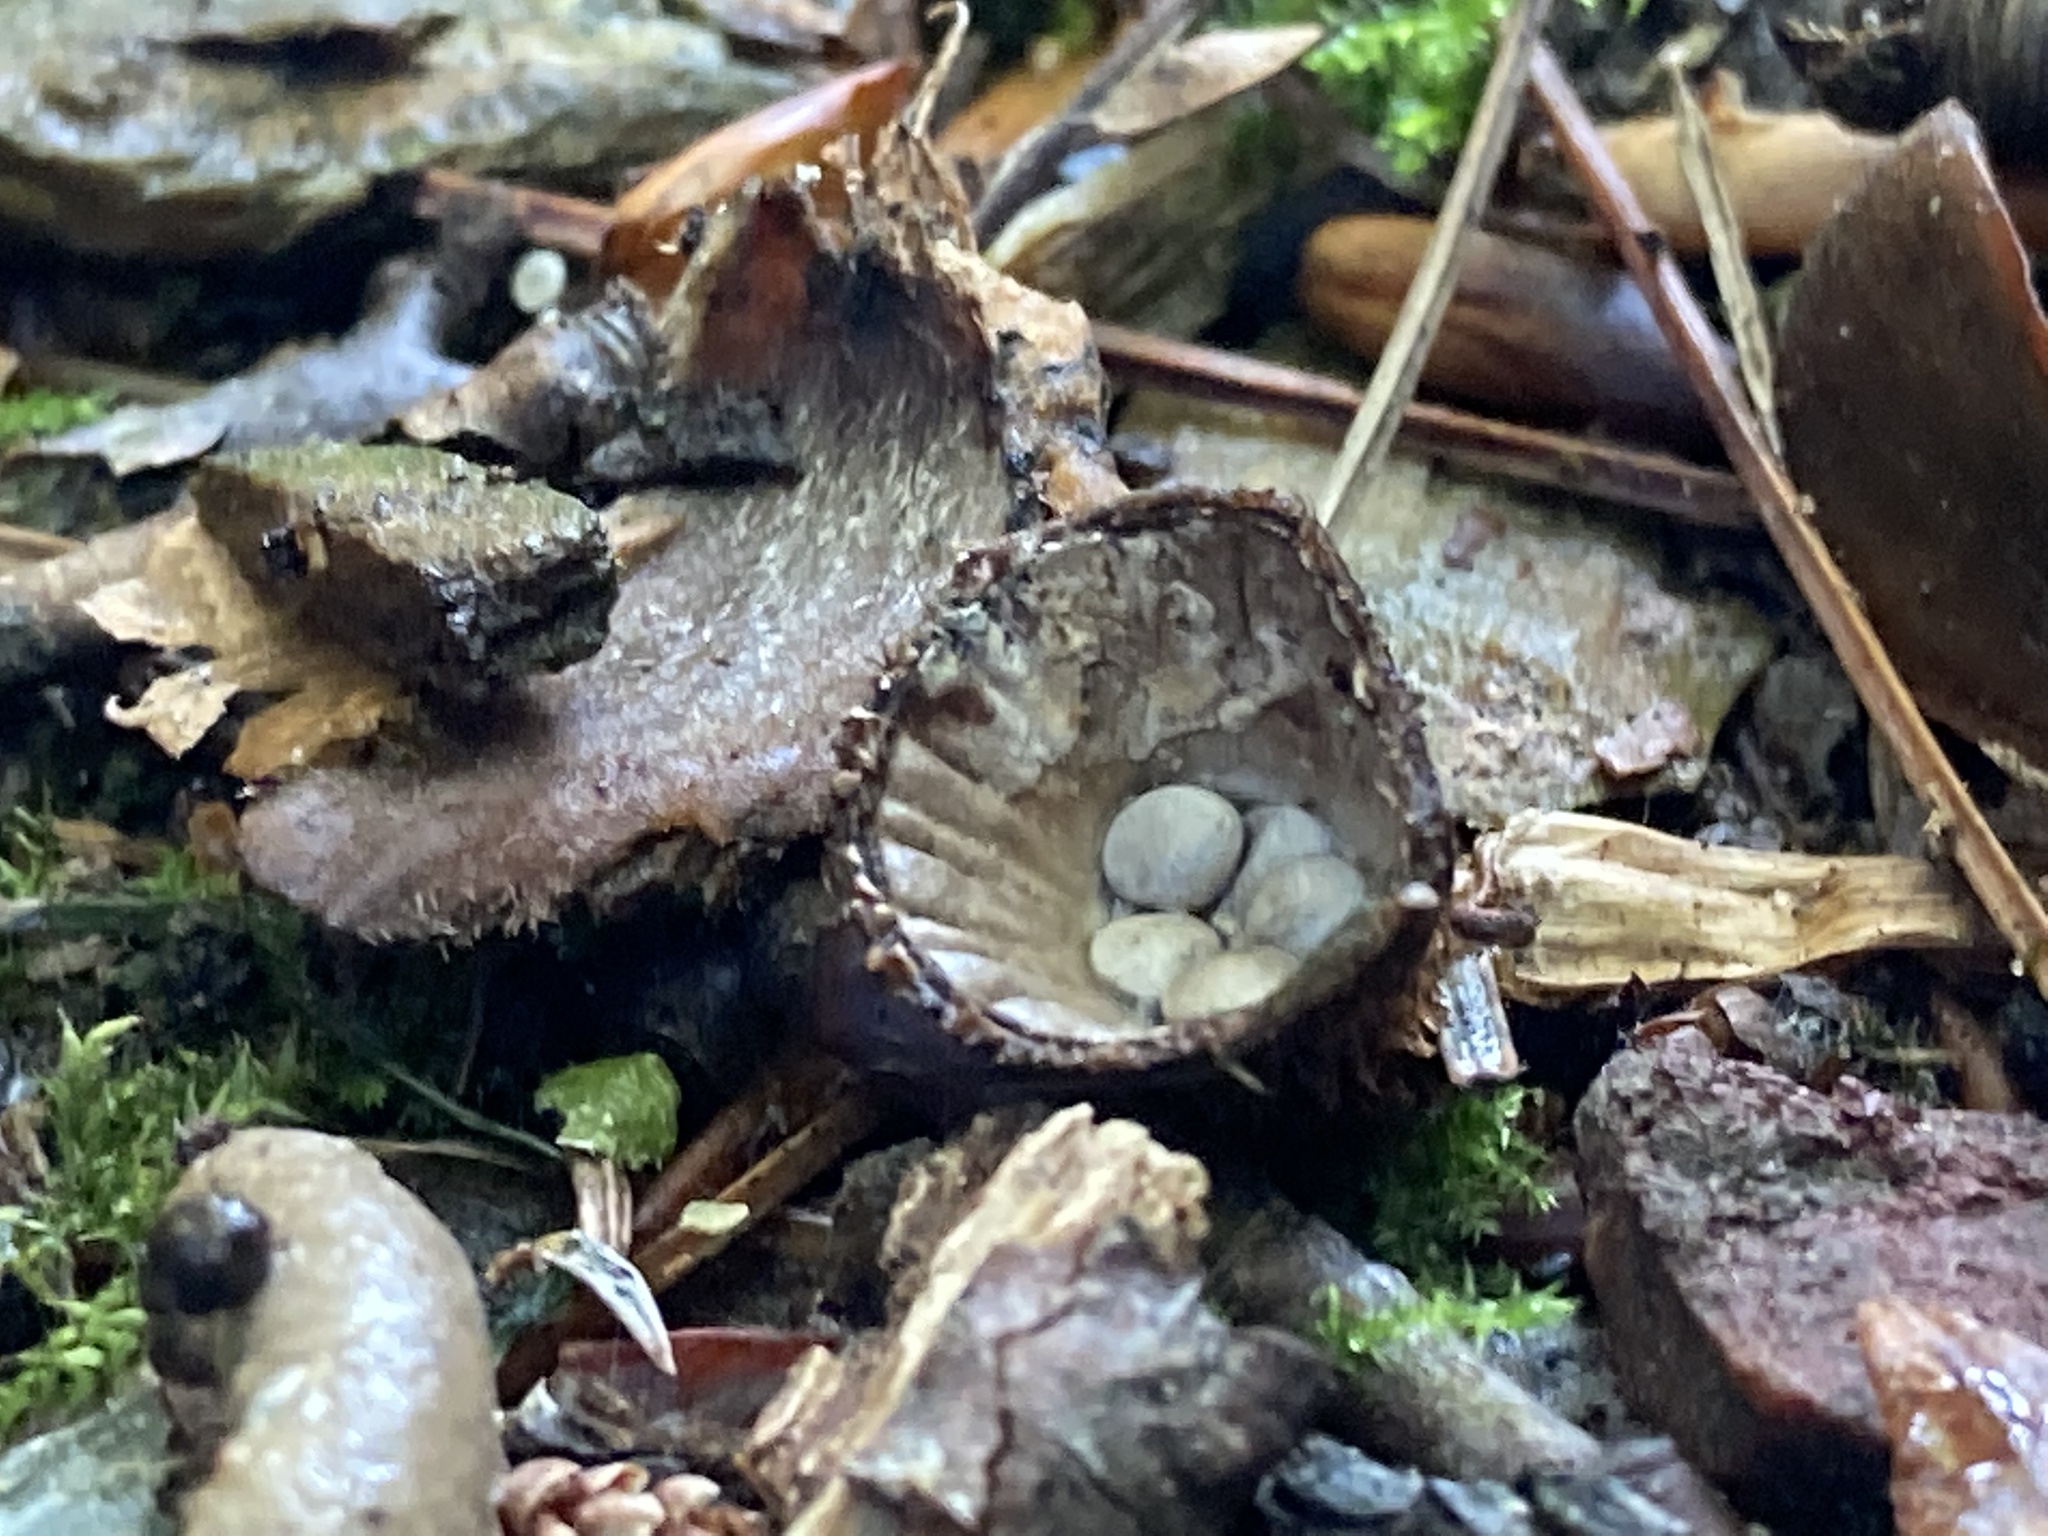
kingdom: Fungi
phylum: Basidiomycota
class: Agaricomycetes
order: Agaricales
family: Agaricaceae
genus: Cyathus
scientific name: Cyathus striatus
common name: Fluted bird's nest
